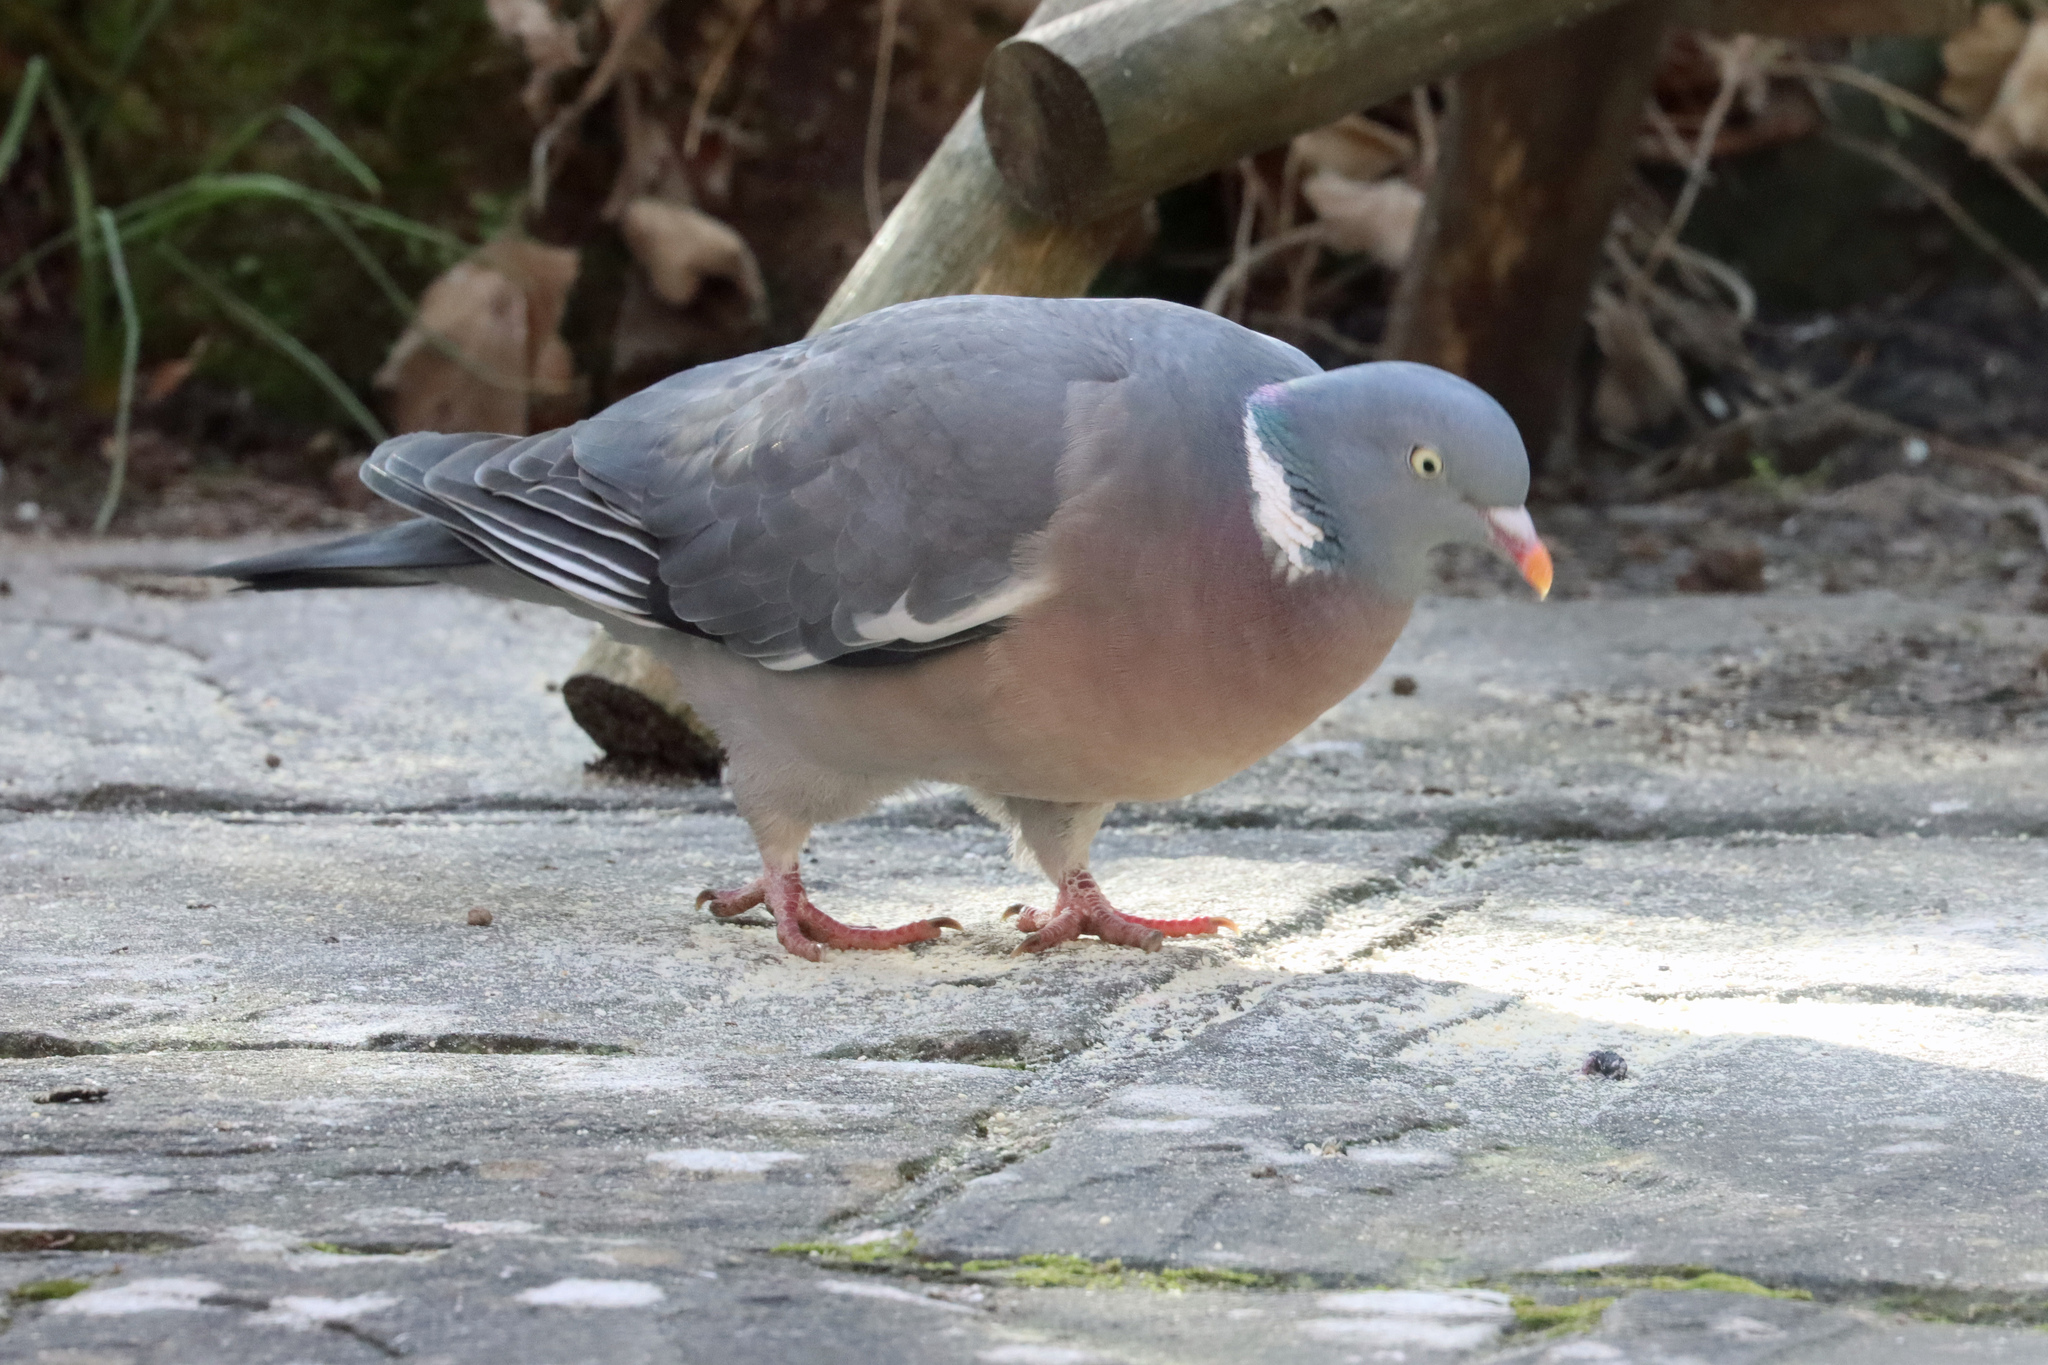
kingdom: Animalia
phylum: Chordata
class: Aves
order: Columbiformes
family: Columbidae
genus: Columba
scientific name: Columba palumbus
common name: Common wood pigeon
